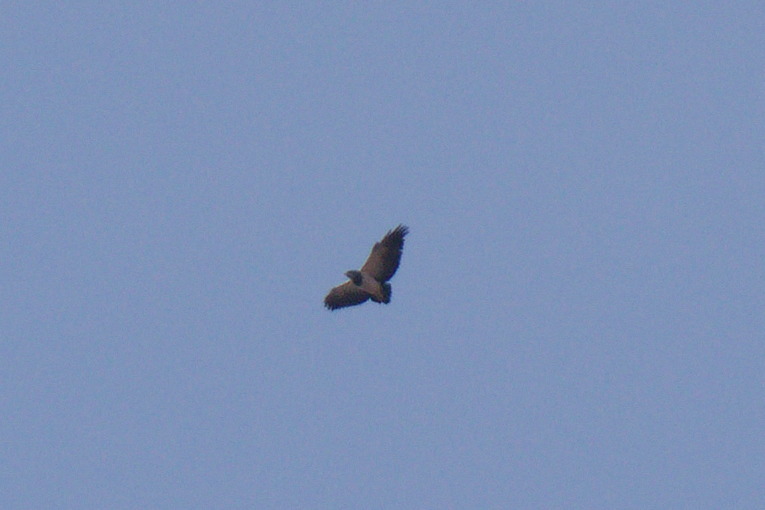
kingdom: Animalia
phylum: Chordata
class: Aves
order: Accipitriformes
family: Accipitridae
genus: Geranoaetus
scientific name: Geranoaetus melanoleucus
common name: Black-chested buzzard-eagle
